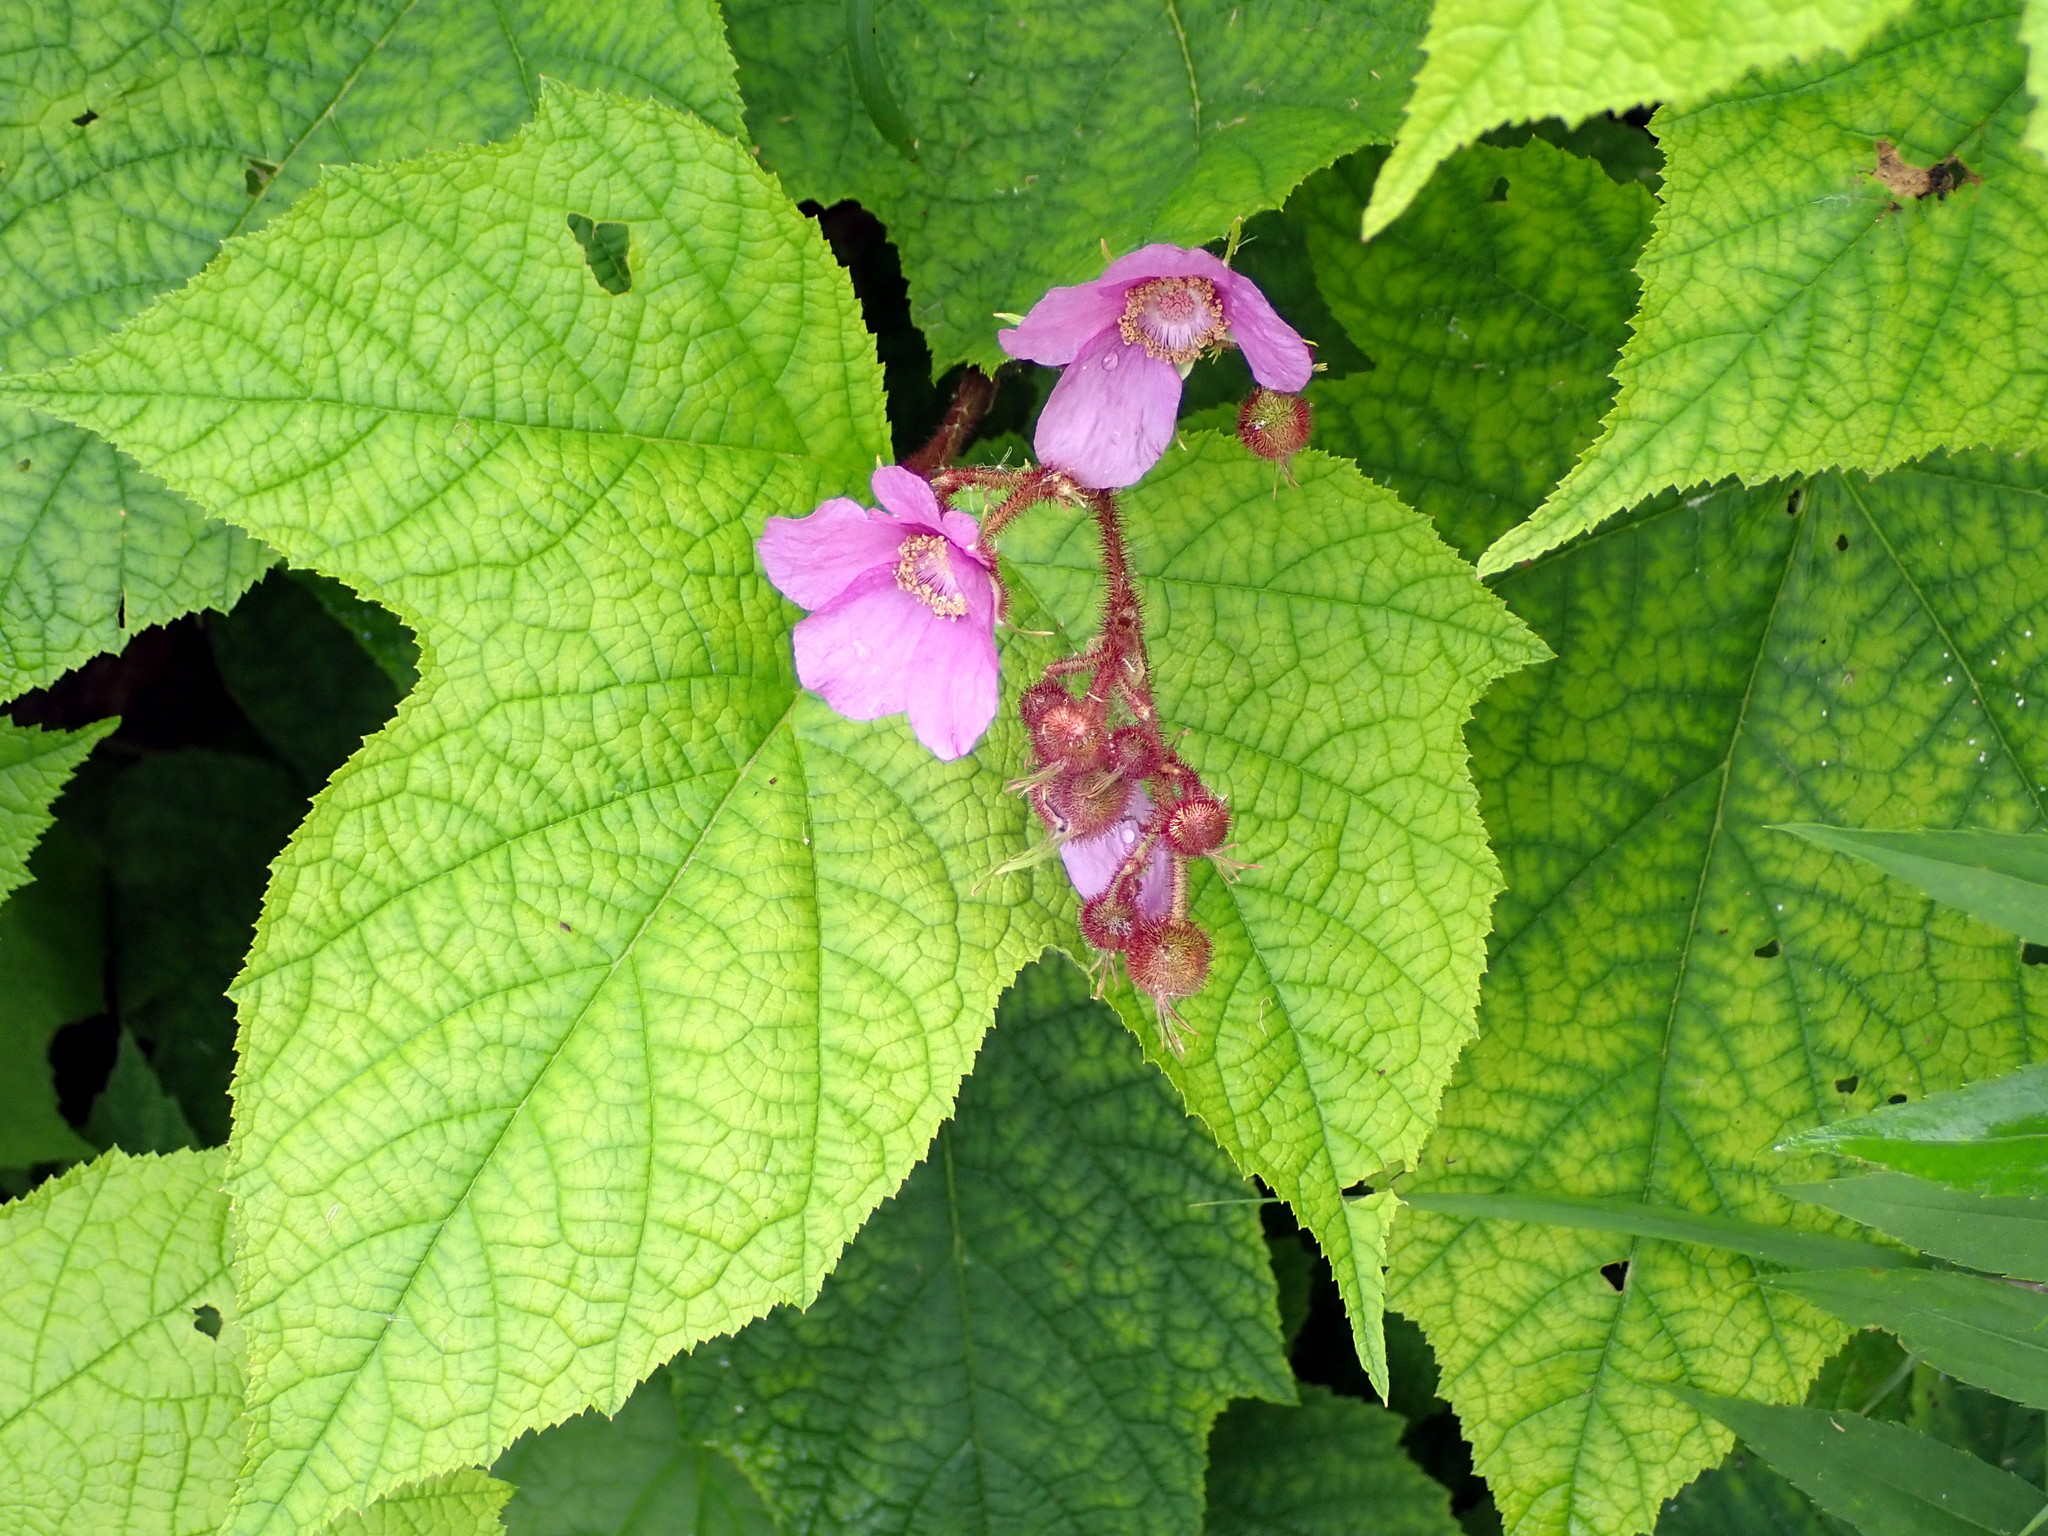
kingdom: Plantae
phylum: Tracheophyta
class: Magnoliopsida
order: Rosales
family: Rosaceae
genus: Rubus
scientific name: Rubus odoratus
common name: Purple-flowered raspberry
